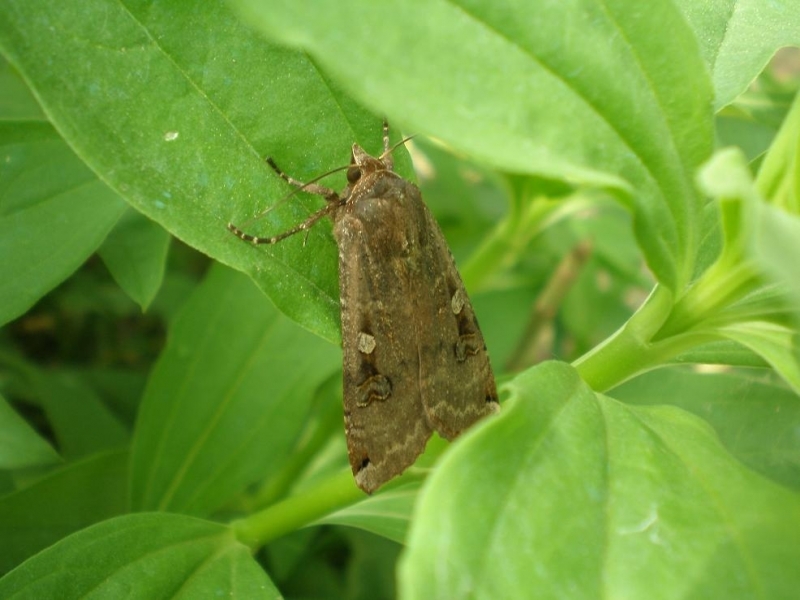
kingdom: Animalia
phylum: Arthropoda
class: Insecta
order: Lepidoptera
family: Noctuidae
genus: Noctua
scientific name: Noctua pronuba
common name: Large yellow underwing
